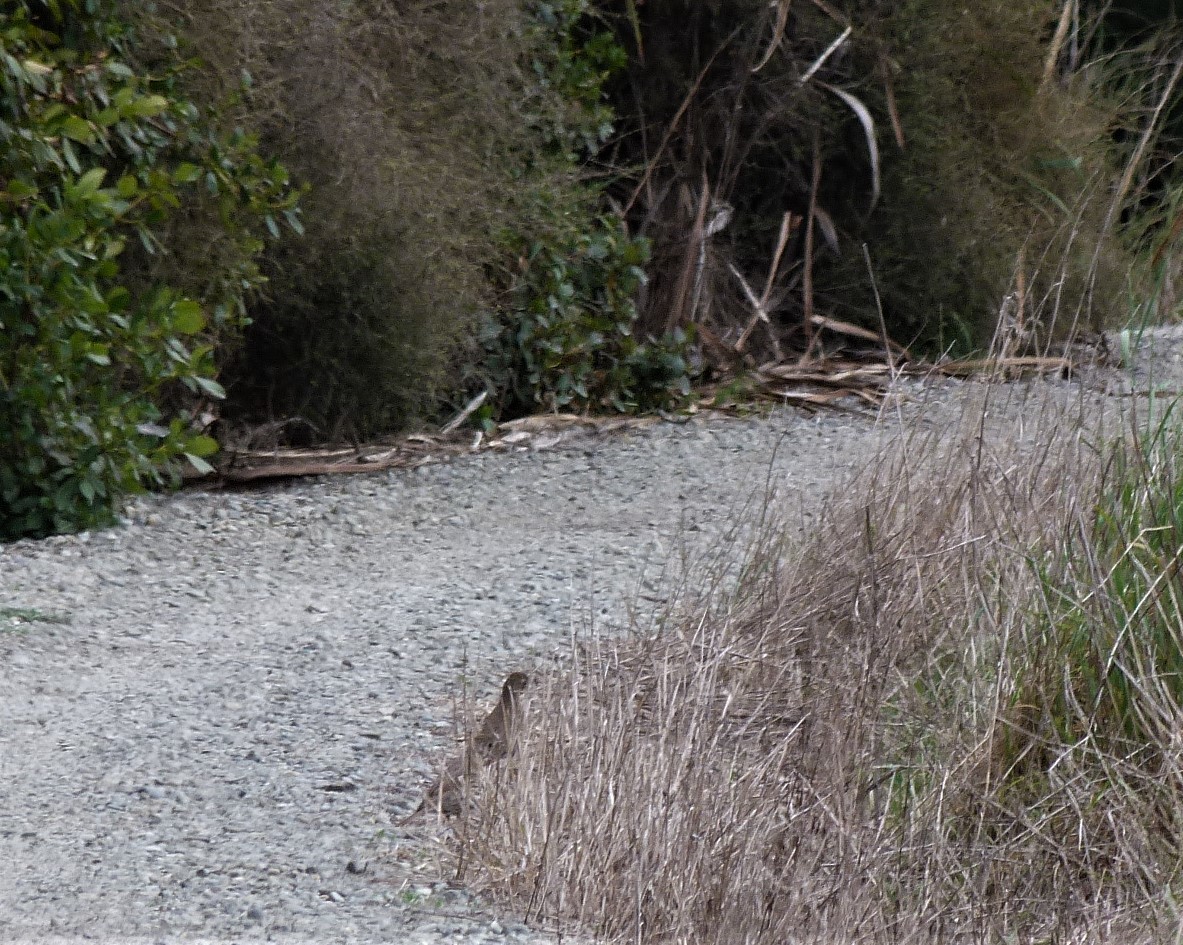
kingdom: Animalia
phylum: Chordata
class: Aves
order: Passeriformes
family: Turdidae
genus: Turdus
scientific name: Turdus philomelos
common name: Song thrush
